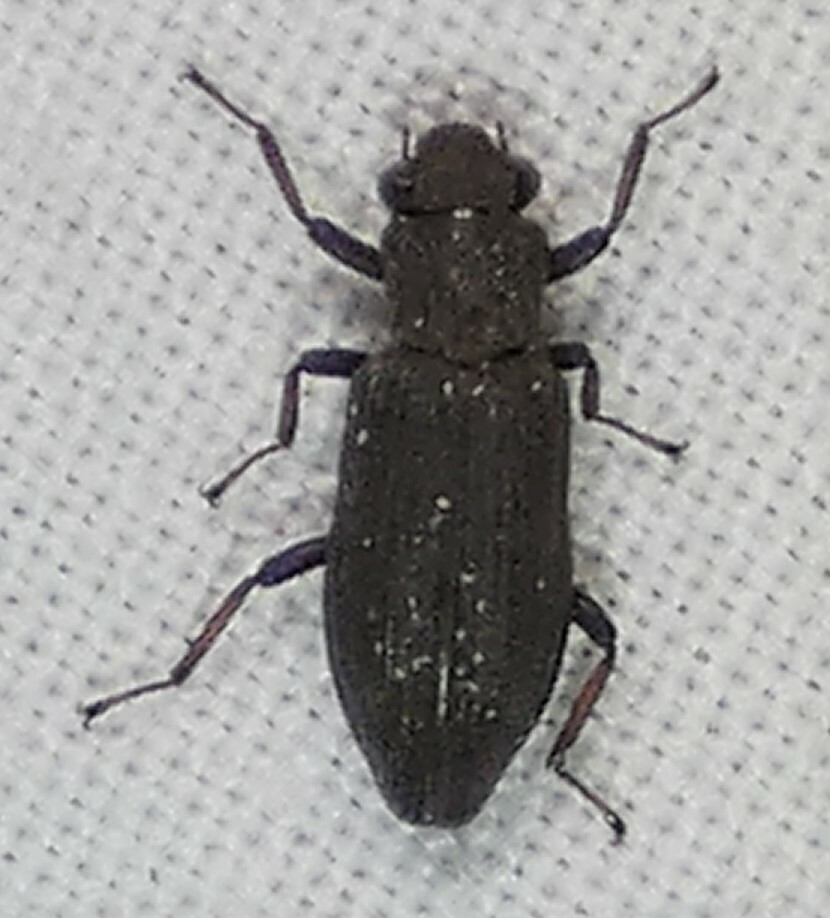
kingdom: Animalia
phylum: Arthropoda
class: Insecta
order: Coleoptera
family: Hydrochidae
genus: Hydrochus
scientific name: Hydrochus
